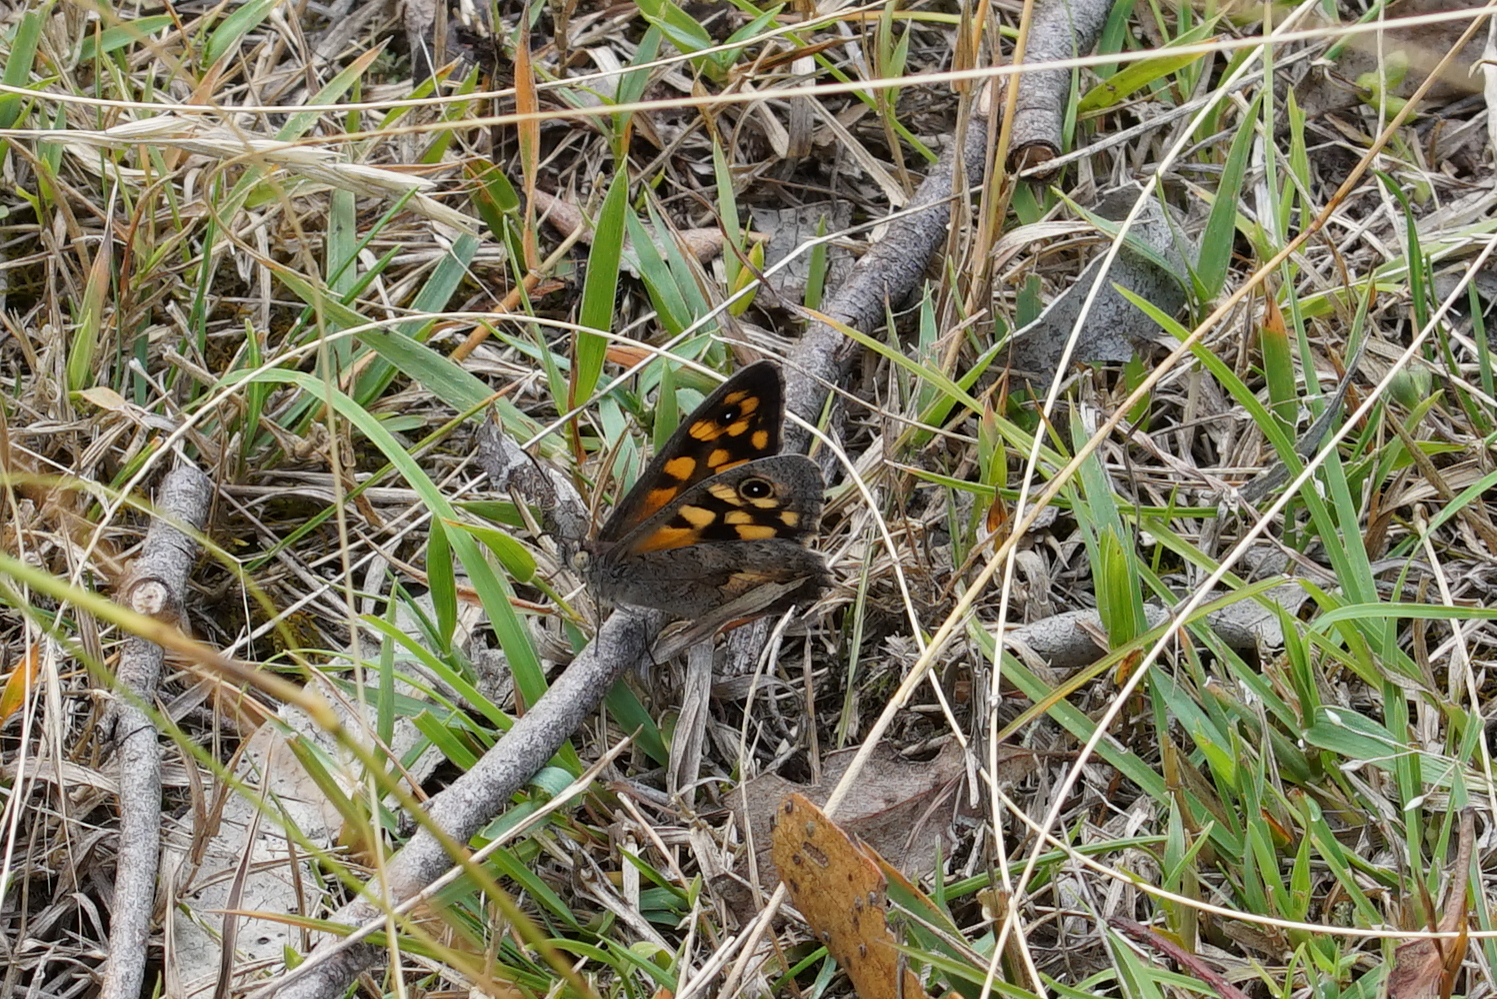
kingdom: Animalia
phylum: Arthropoda
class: Insecta
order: Lepidoptera
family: Nymphalidae
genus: Geitoneura
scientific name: Geitoneura klugii
